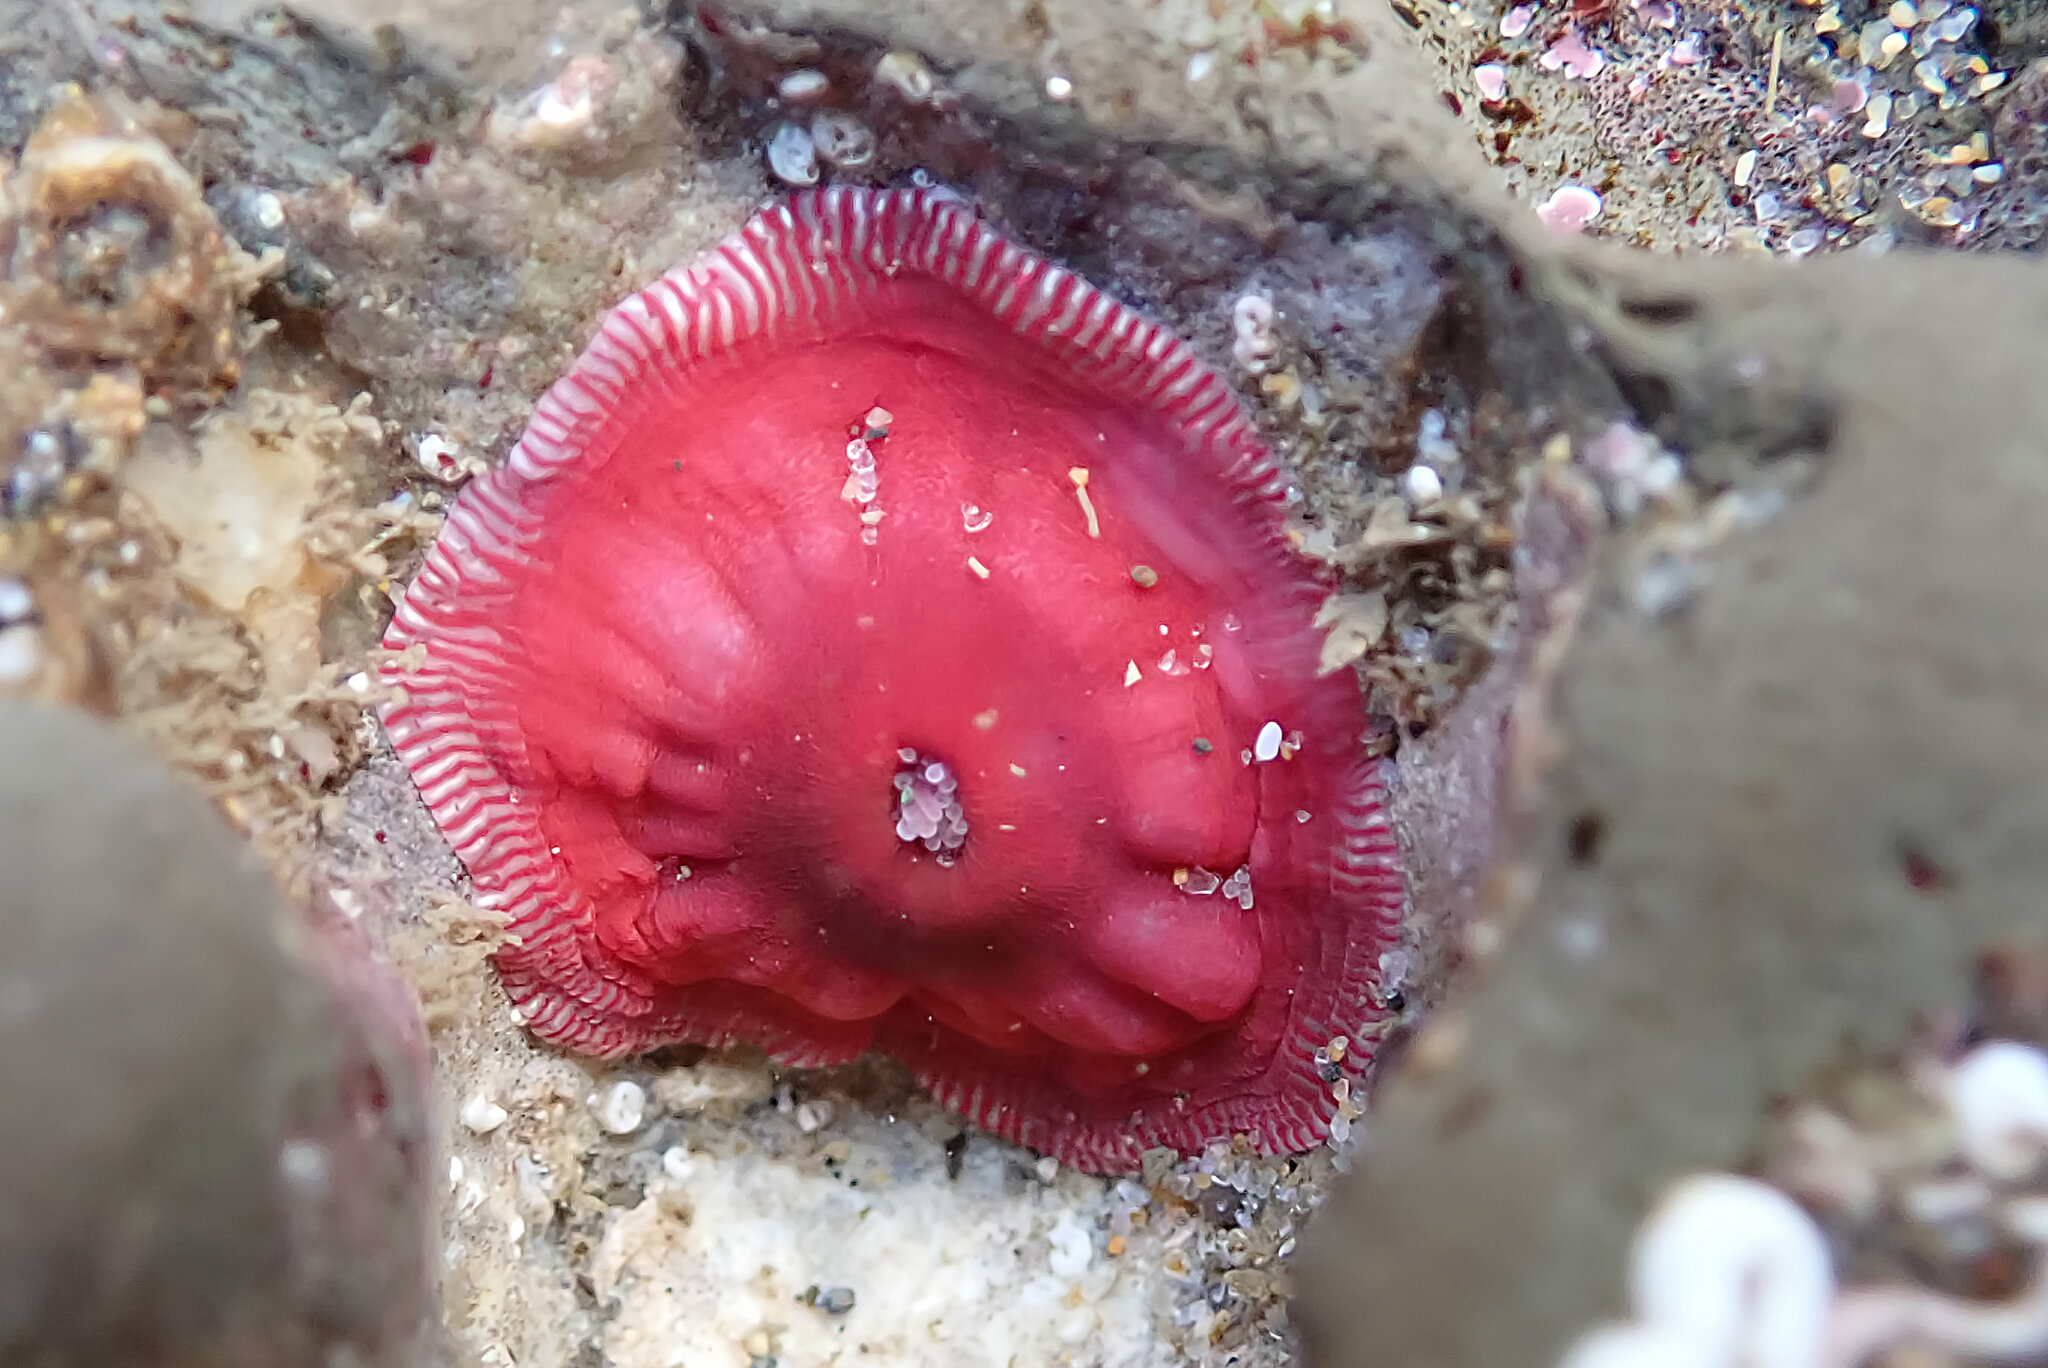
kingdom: Animalia
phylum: Cnidaria
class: Anthozoa
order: Actiniaria
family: Actiniidae
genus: Epiactis
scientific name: Epiactis prolifera
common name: Brooding anemone
